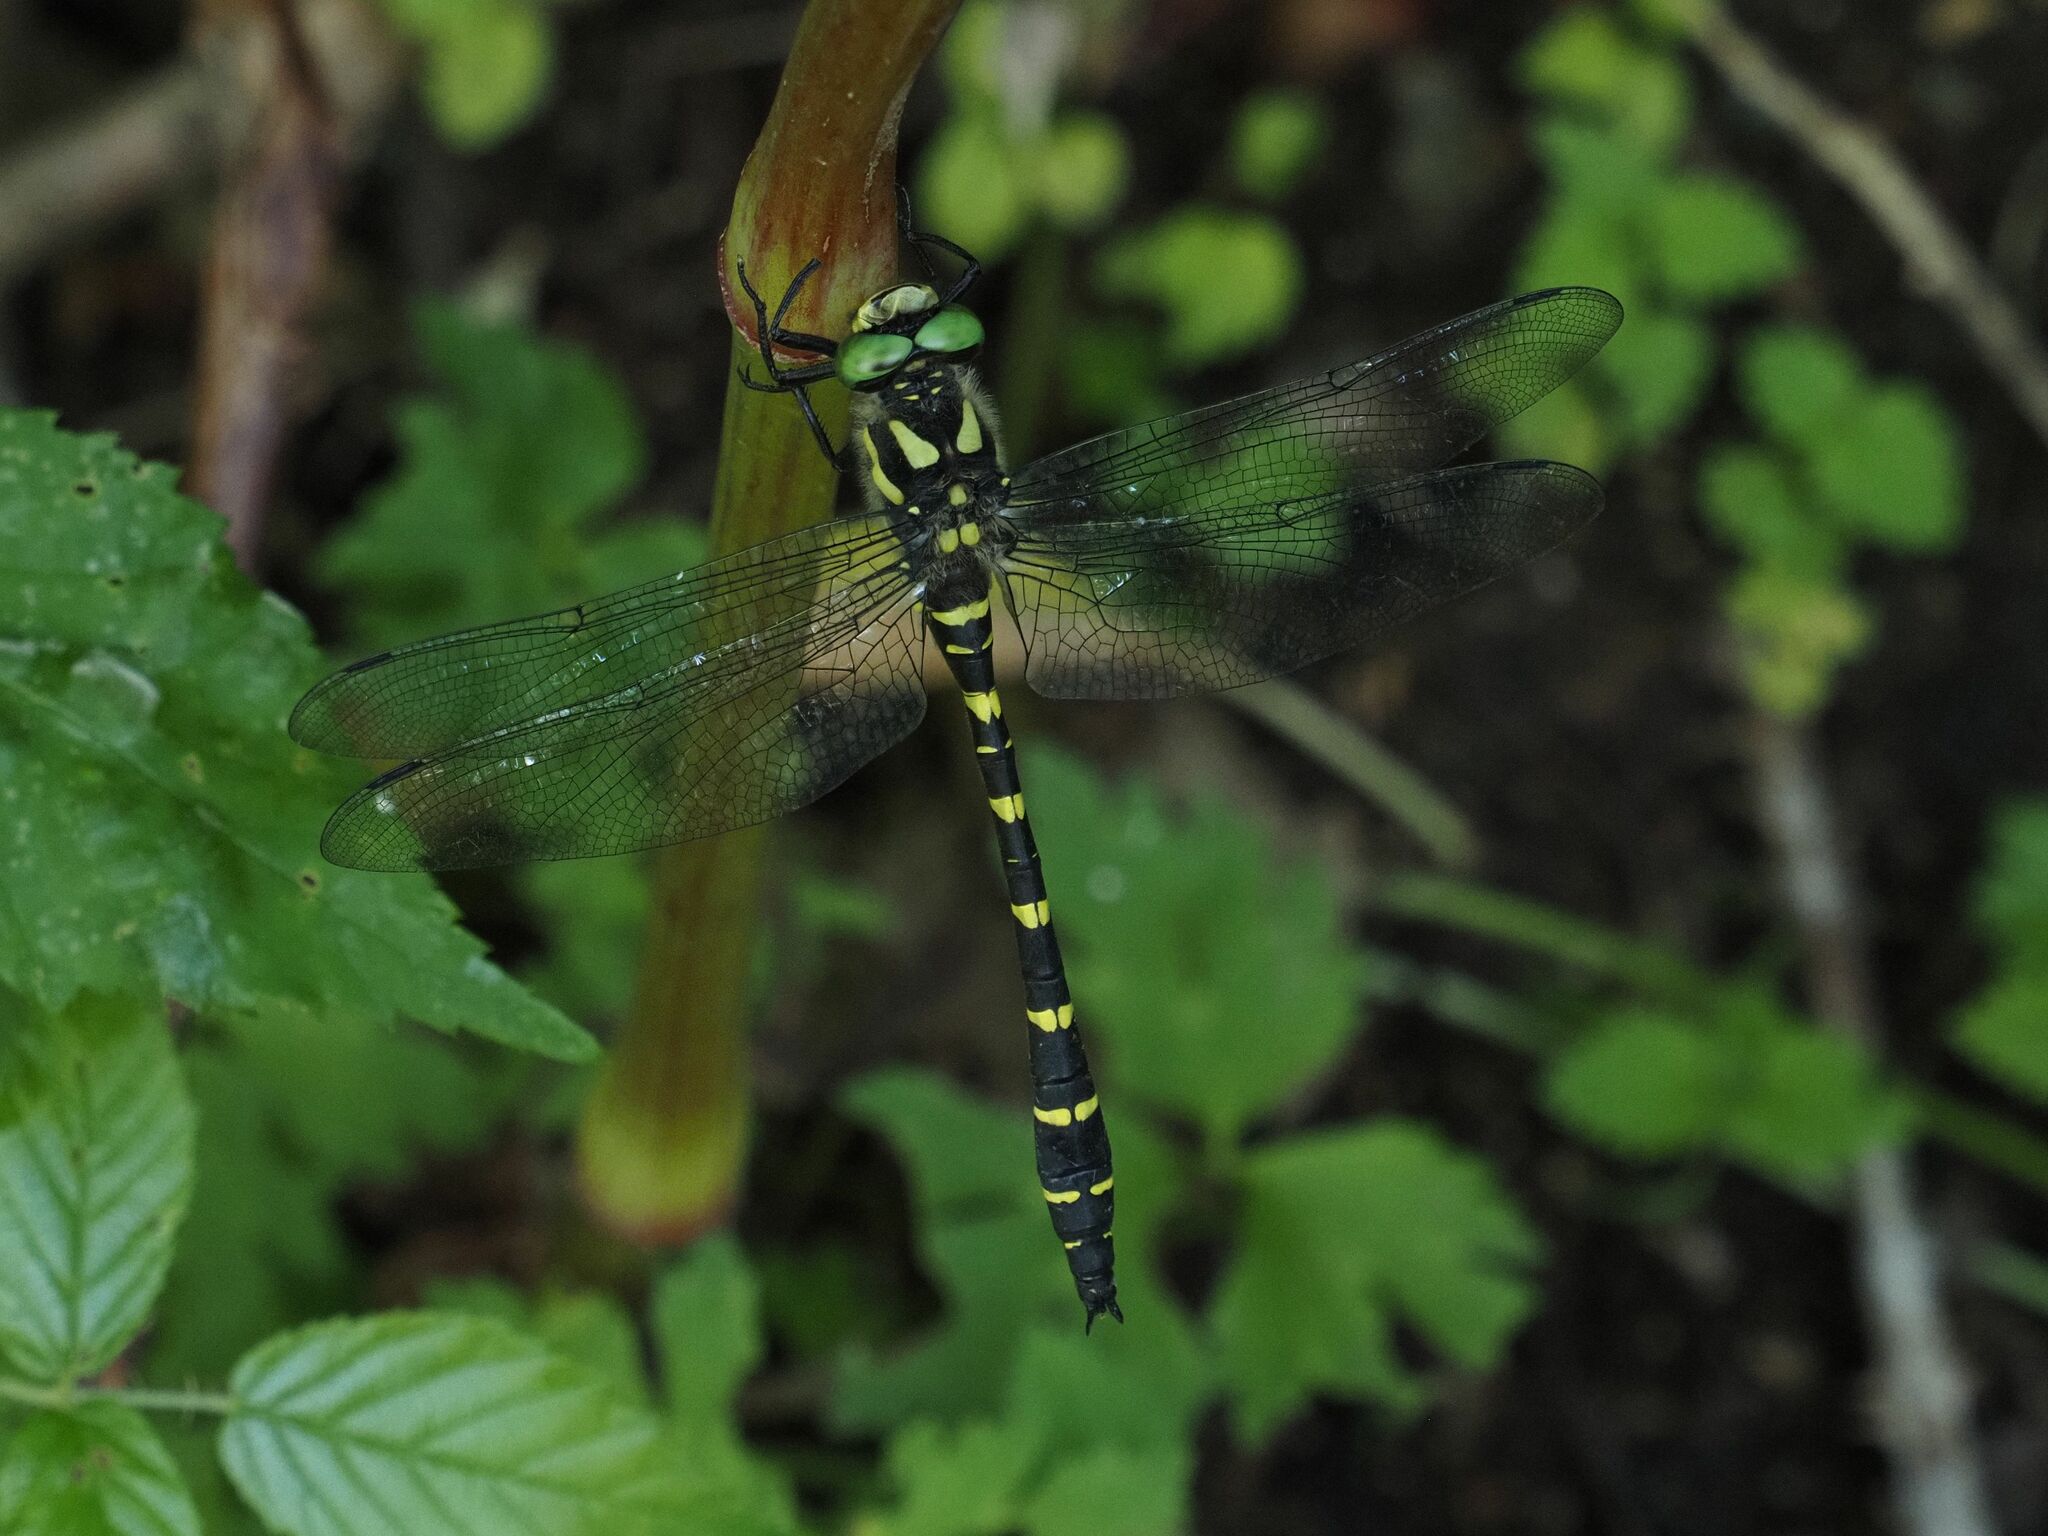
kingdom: Animalia
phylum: Arthropoda
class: Insecta
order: Odonata
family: Cordulegastridae
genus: Cordulegaster
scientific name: Cordulegaster bidentata
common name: Sombre goldenring
